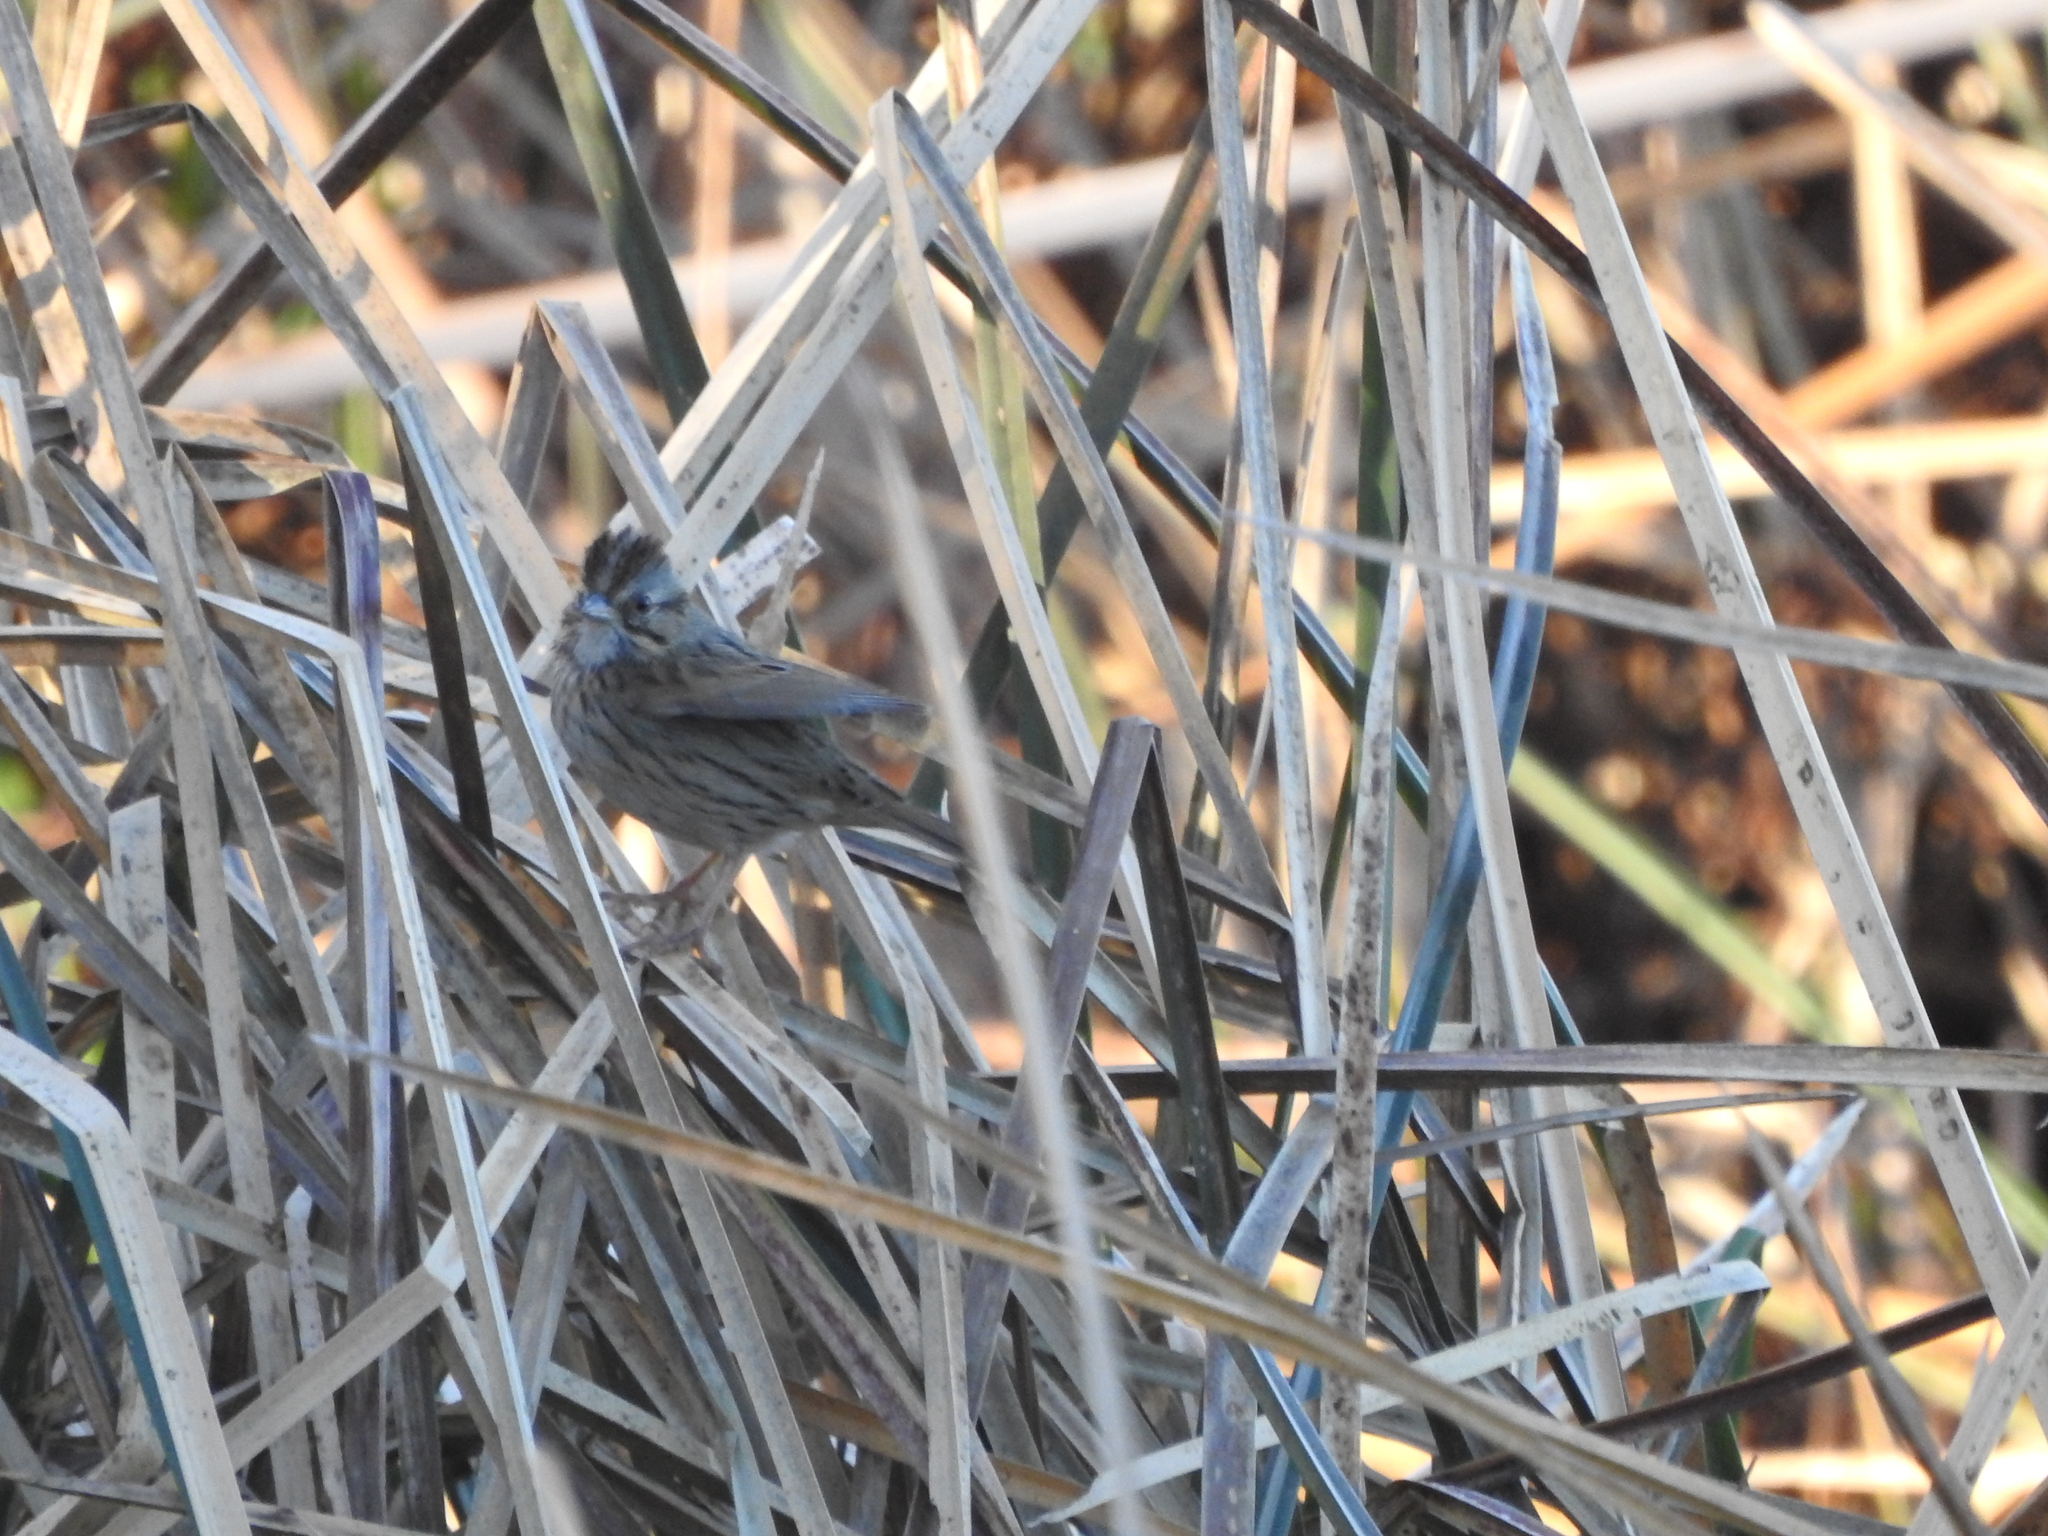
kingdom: Animalia
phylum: Chordata
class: Aves
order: Passeriformes
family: Passerellidae
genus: Melospiza
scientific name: Melospiza lincolnii
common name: Lincoln's sparrow
